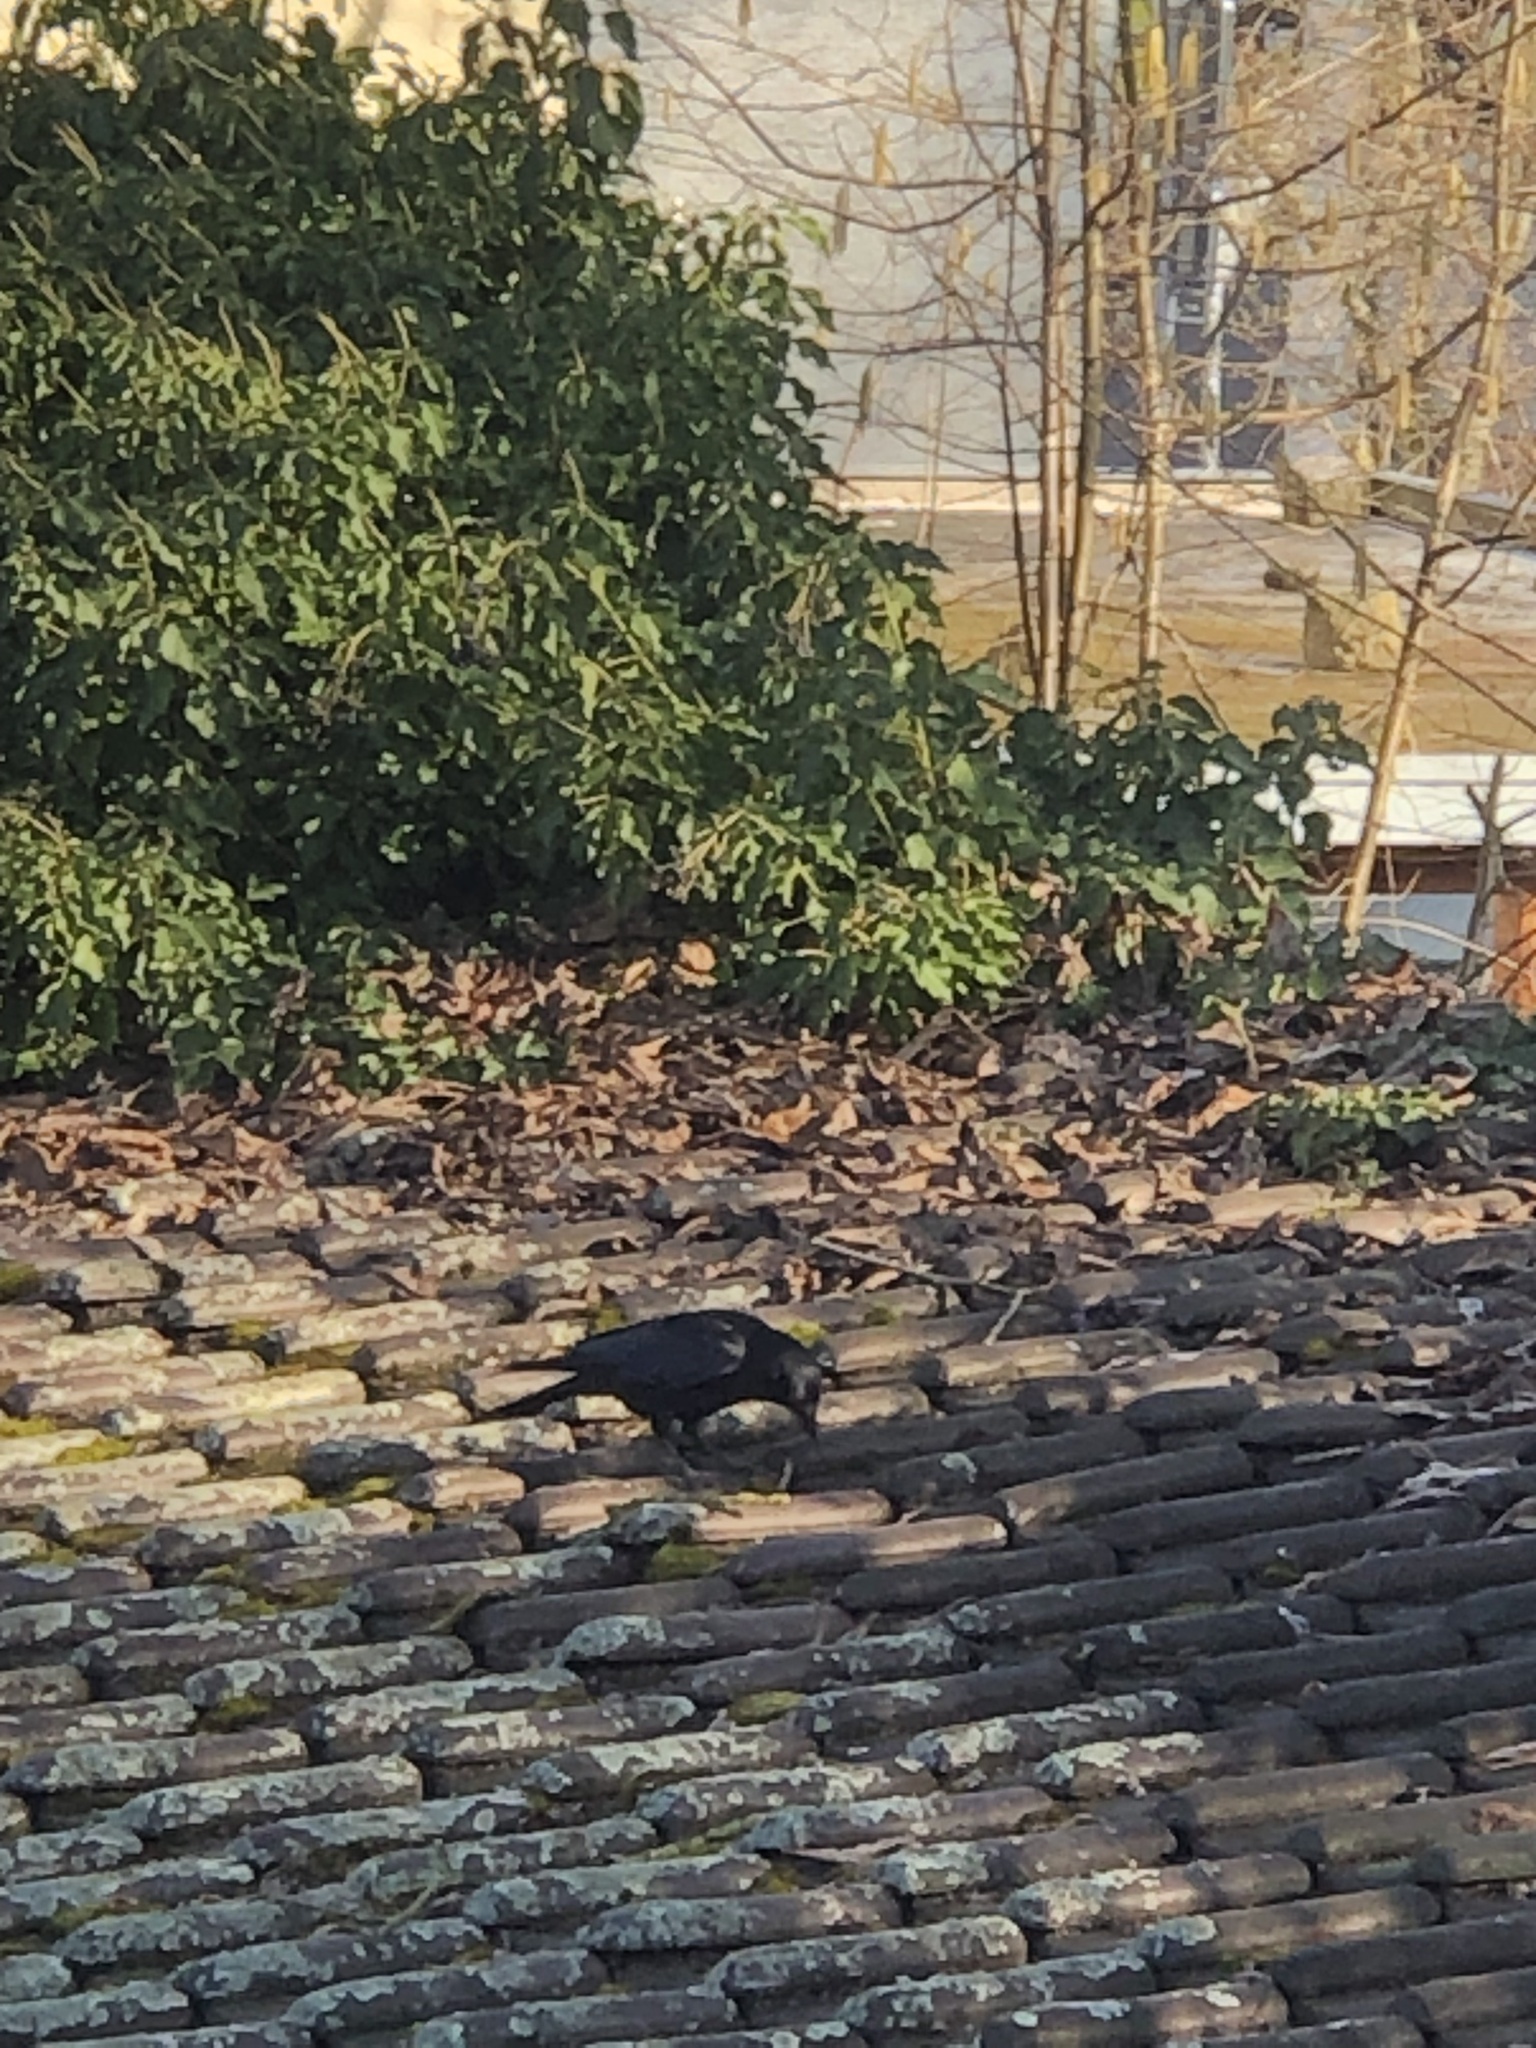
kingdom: Animalia
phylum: Chordata
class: Aves
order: Passeriformes
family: Corvidae
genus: Corvus
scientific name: Corvus corone
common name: Carrion crow
